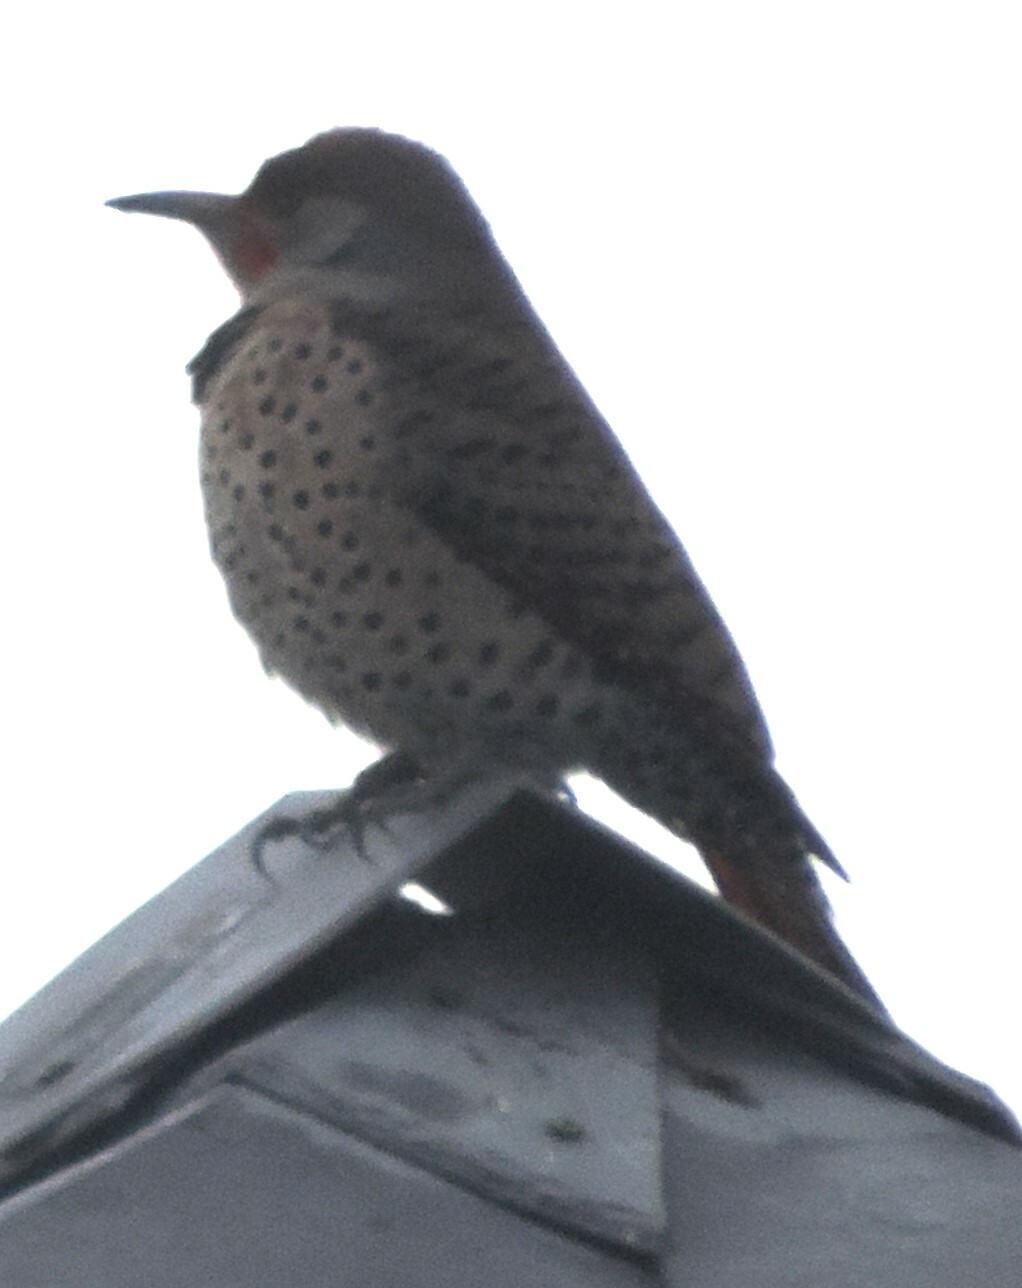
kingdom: Animalia
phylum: Chordata
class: Aves
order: Piciformes
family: Picidae
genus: Colaptes
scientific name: Colaptes auratus
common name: Northern flicker
